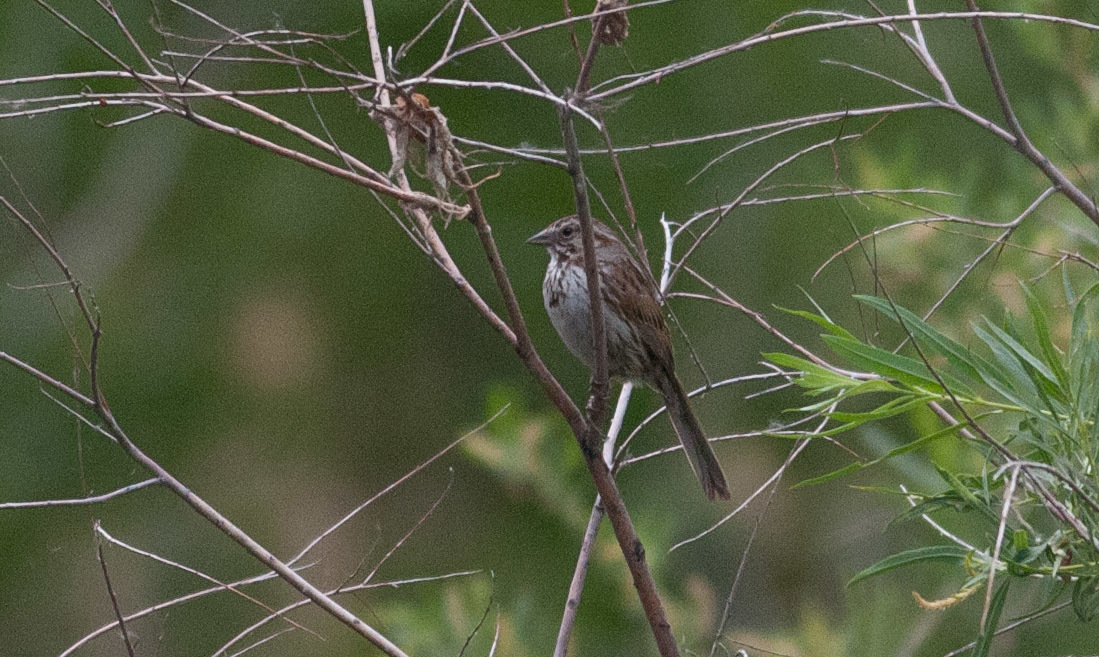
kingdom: Animalia
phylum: Chordata
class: Aves
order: Passeriformes
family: Passerellidae
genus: Melospiza
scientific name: Melospiza melodia
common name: Song sparrow
